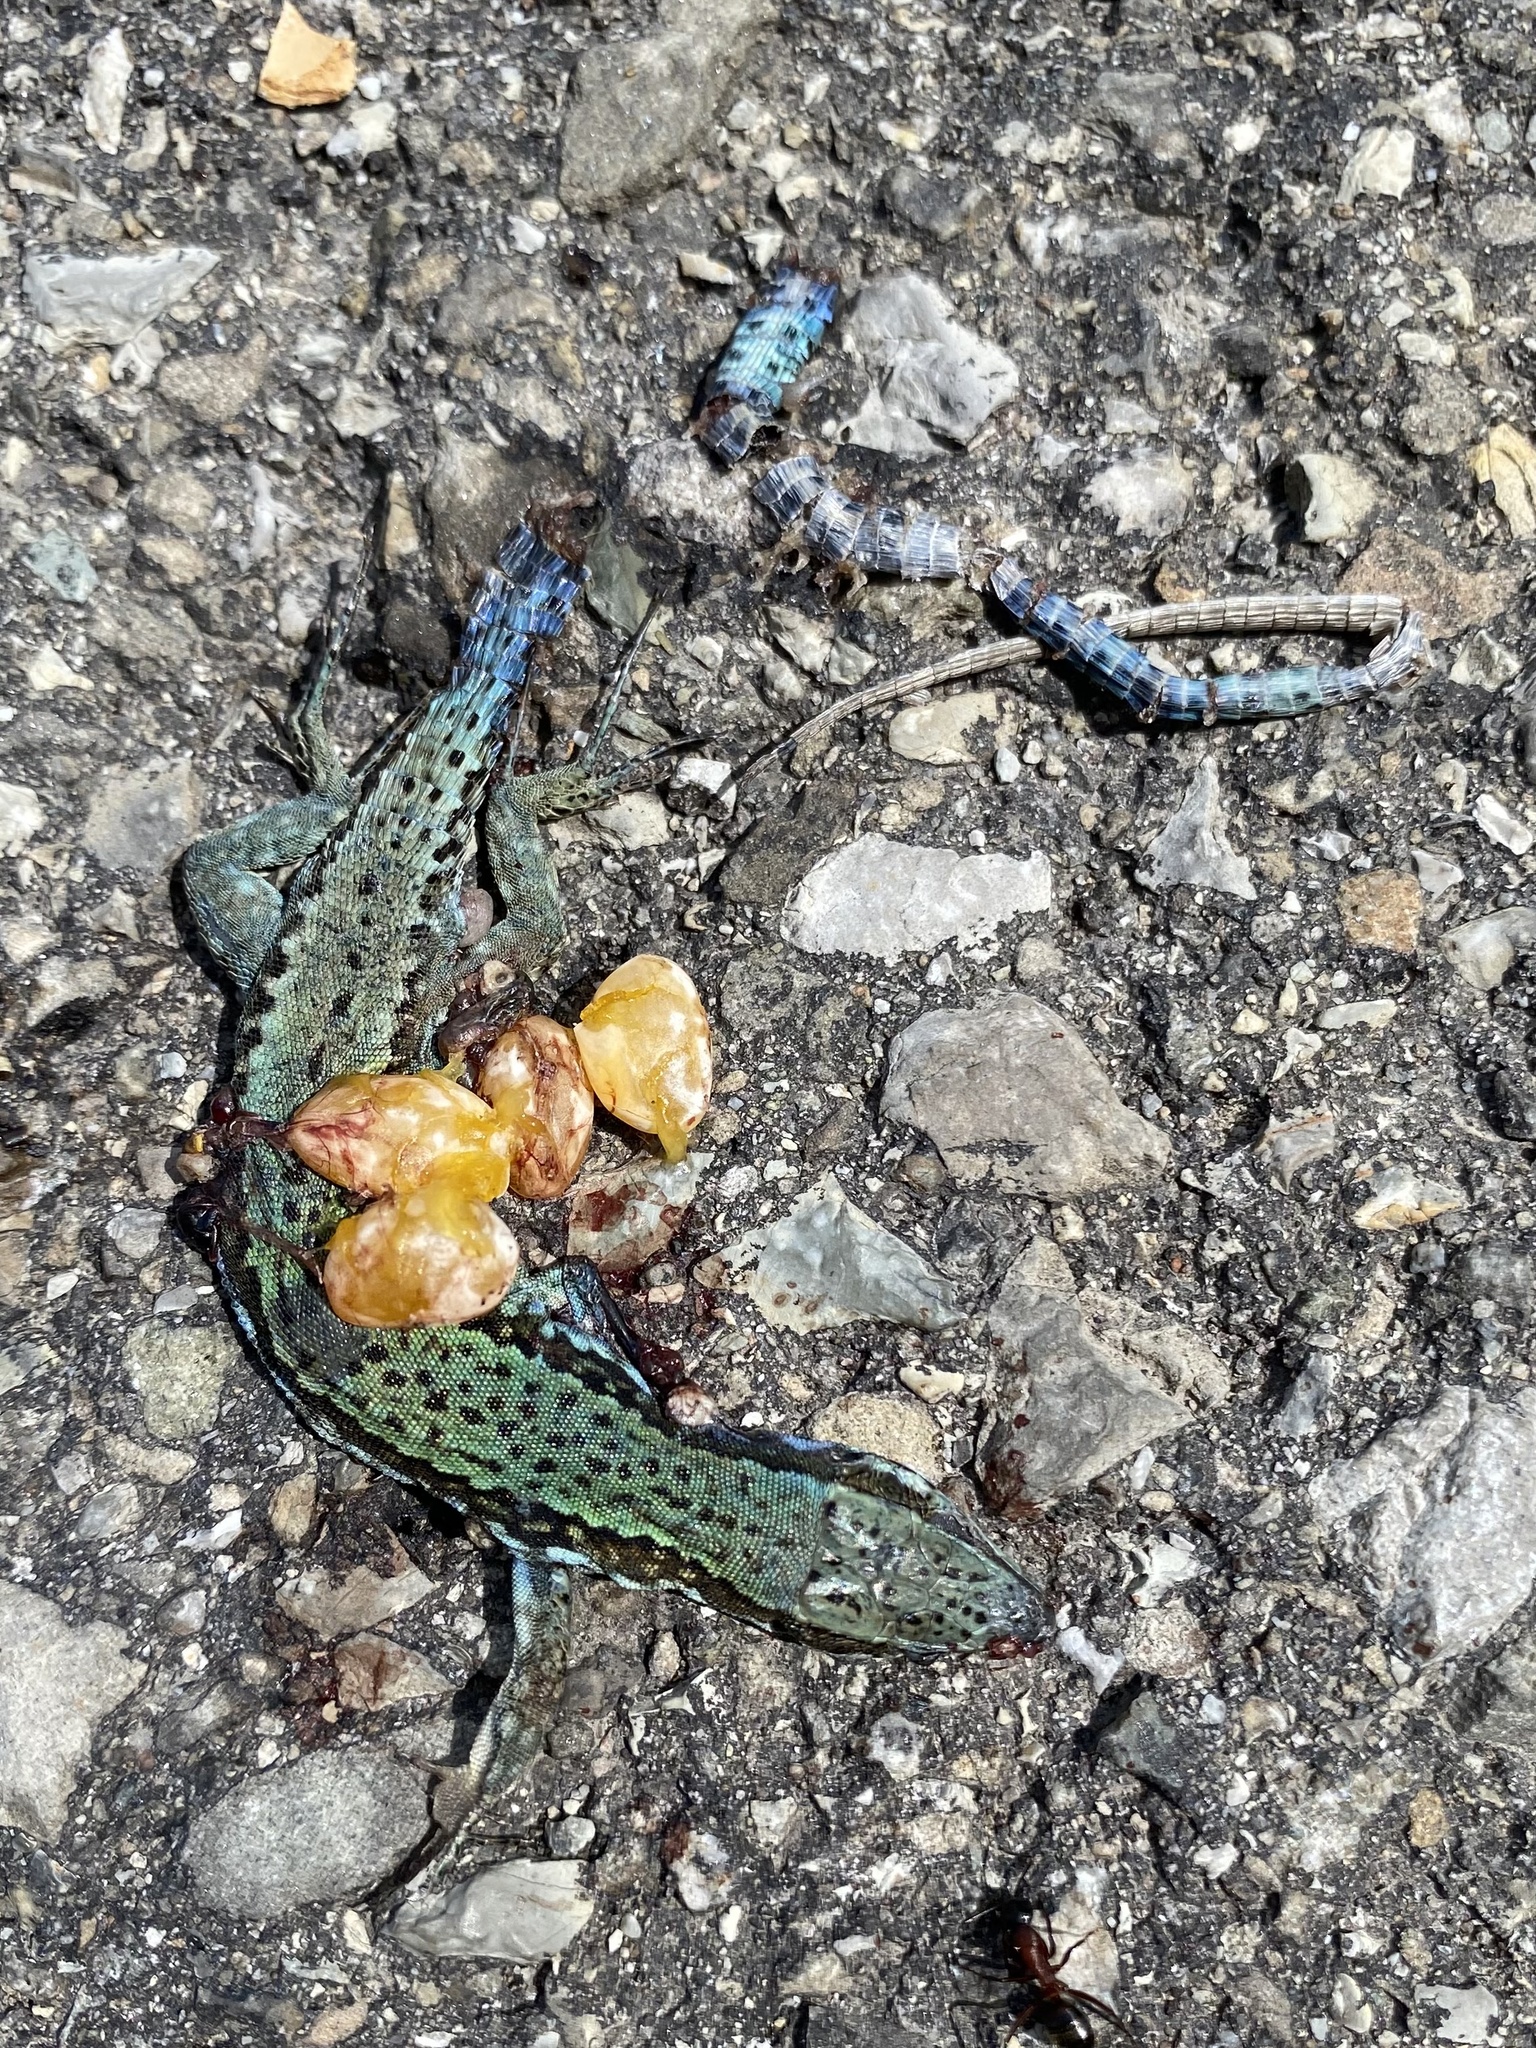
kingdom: Animalia
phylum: Chordata
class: Squamata
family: Lacertidae
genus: Podarcis
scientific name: Podarcis muralis
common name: Common wall lizard
